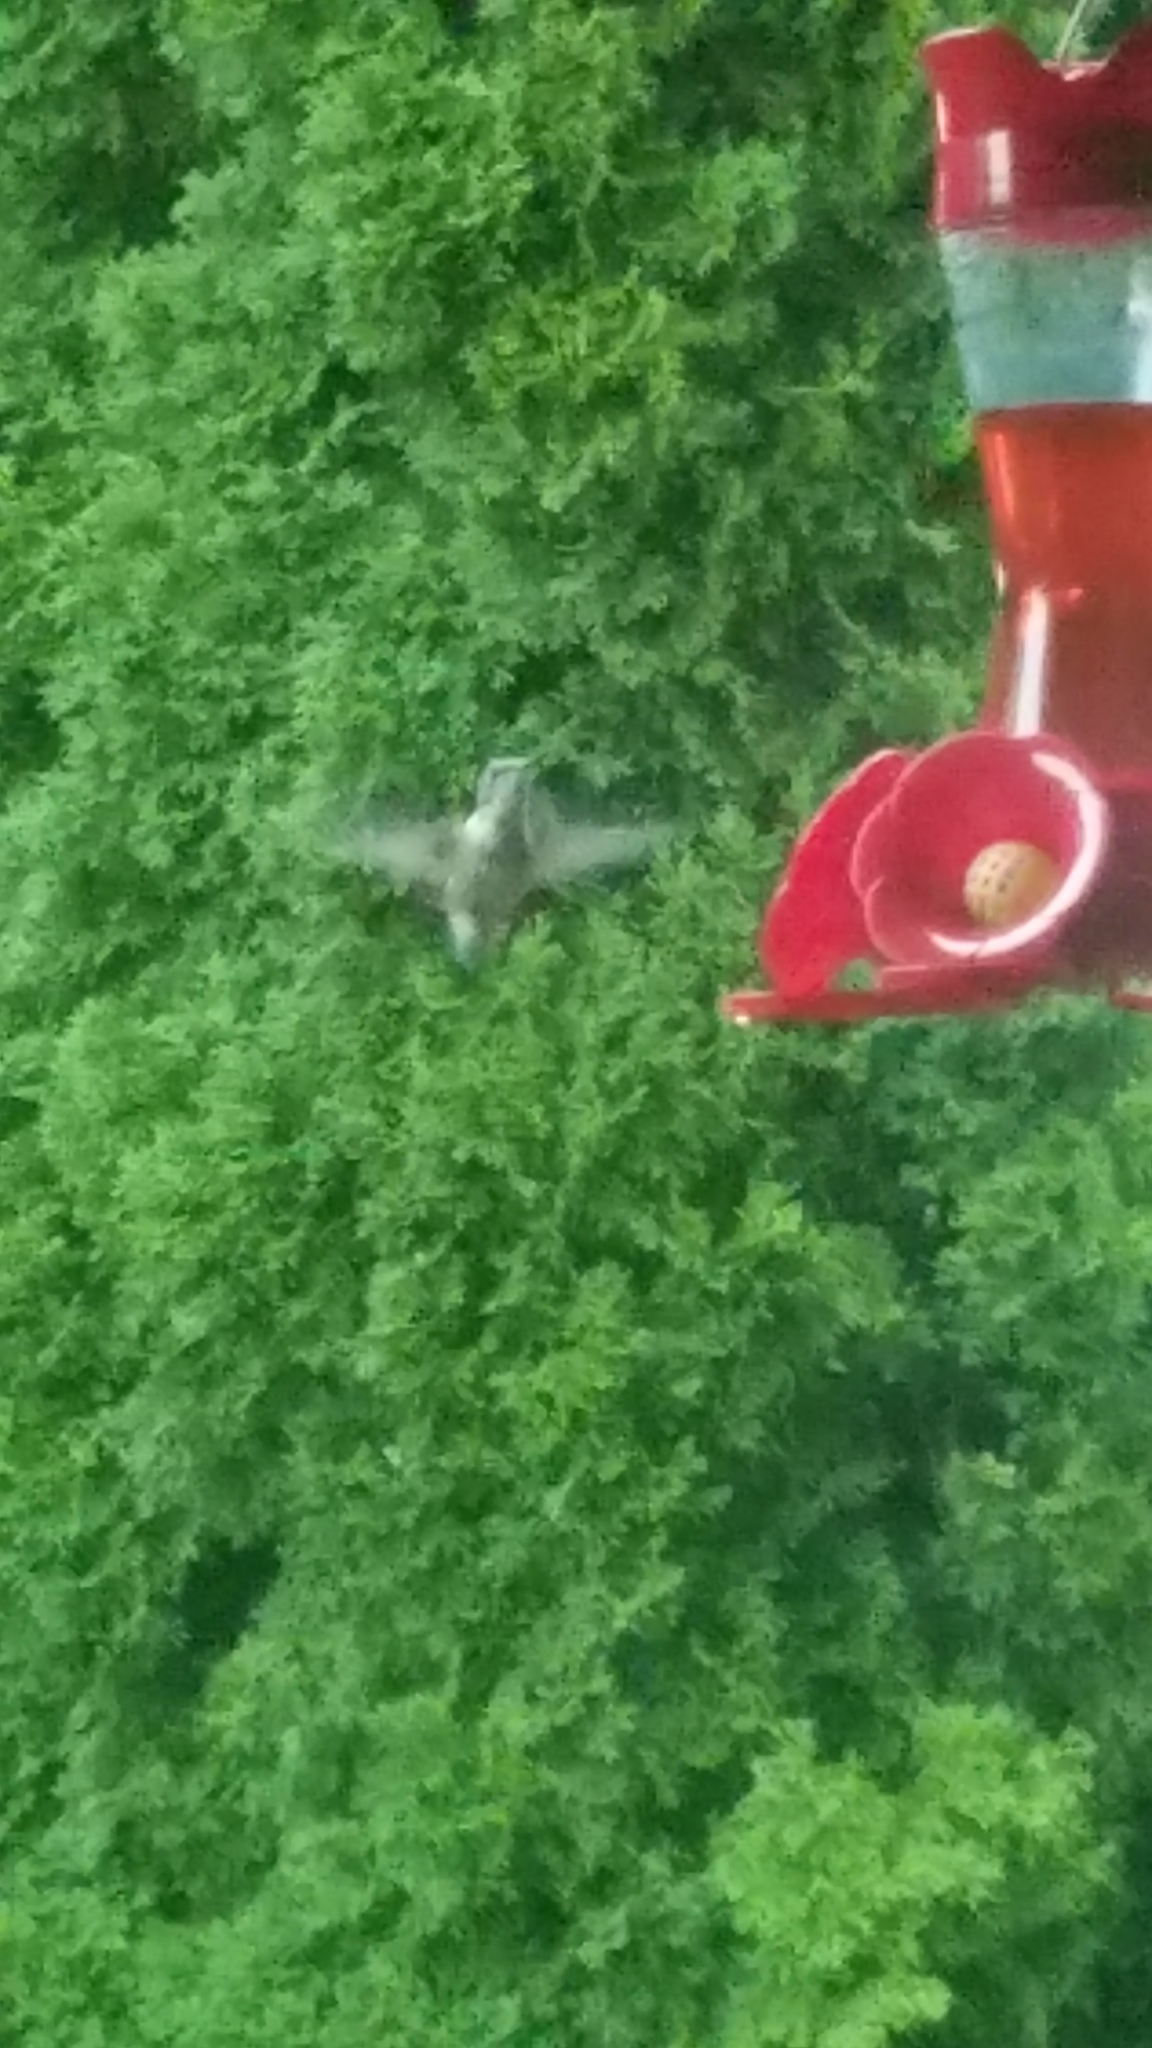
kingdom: Animalia
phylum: Chordata
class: Aves
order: Apodiformes
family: Trochilidae
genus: Archilochus
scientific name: Archilochus colubris
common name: Ruby-throated hummingbird
